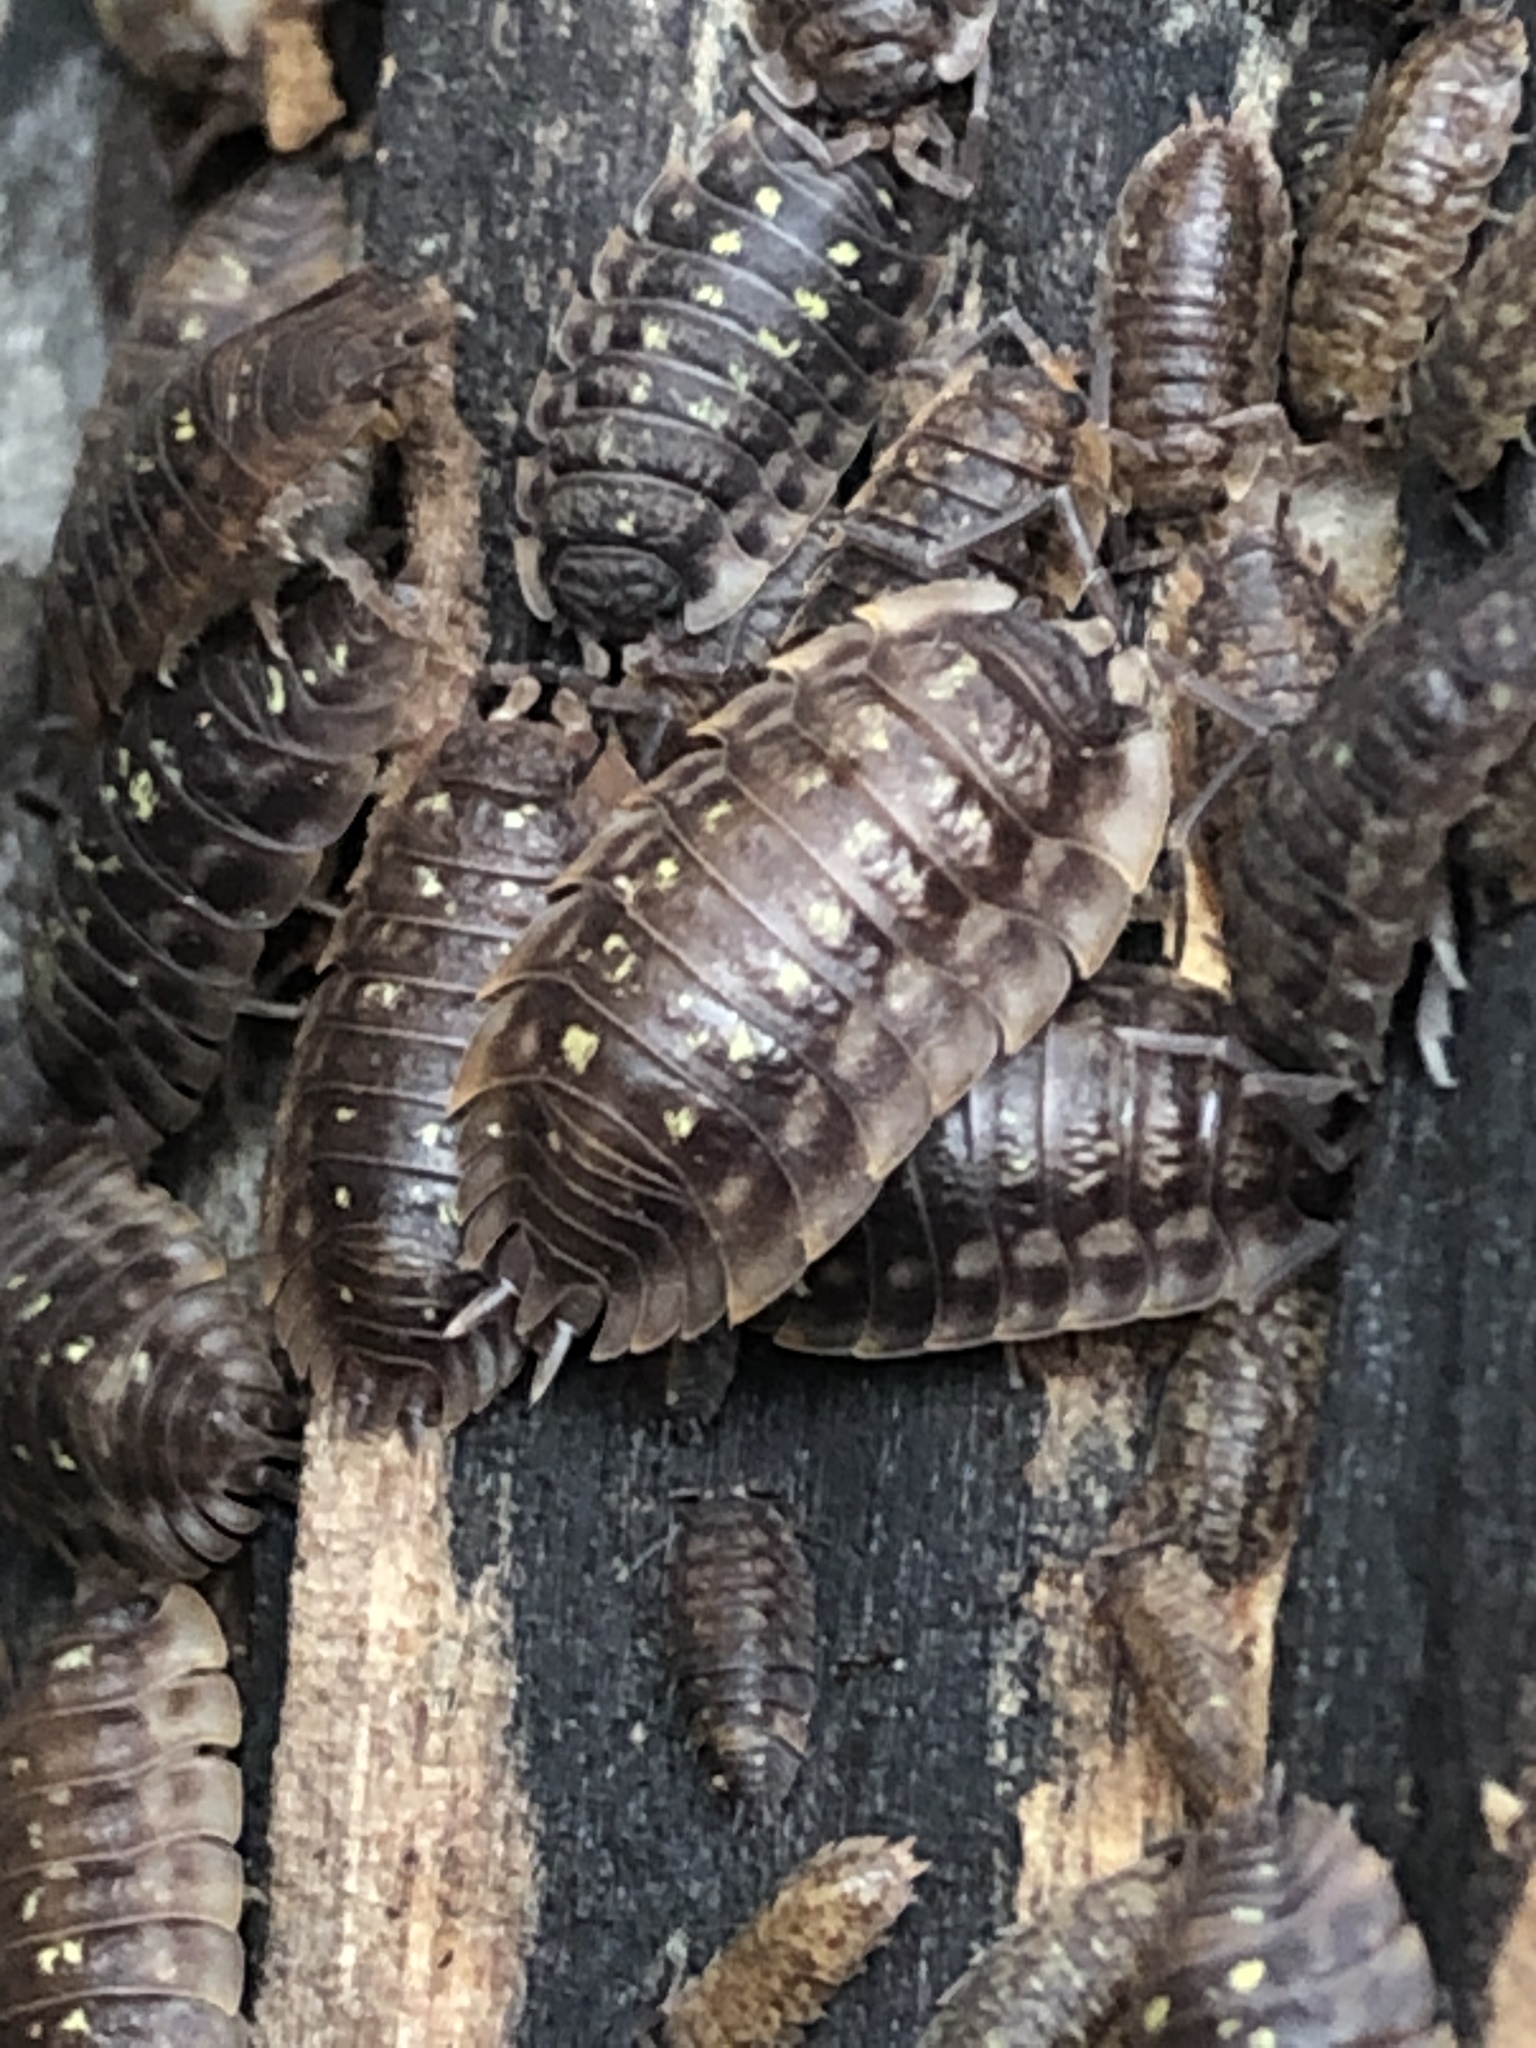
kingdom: Animalia
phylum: Arthropoda
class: Malacostraca
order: Isopoda
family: Oniscidae
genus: Oniscus
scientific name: Oniscus asellus
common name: Common shiny woodlouse
